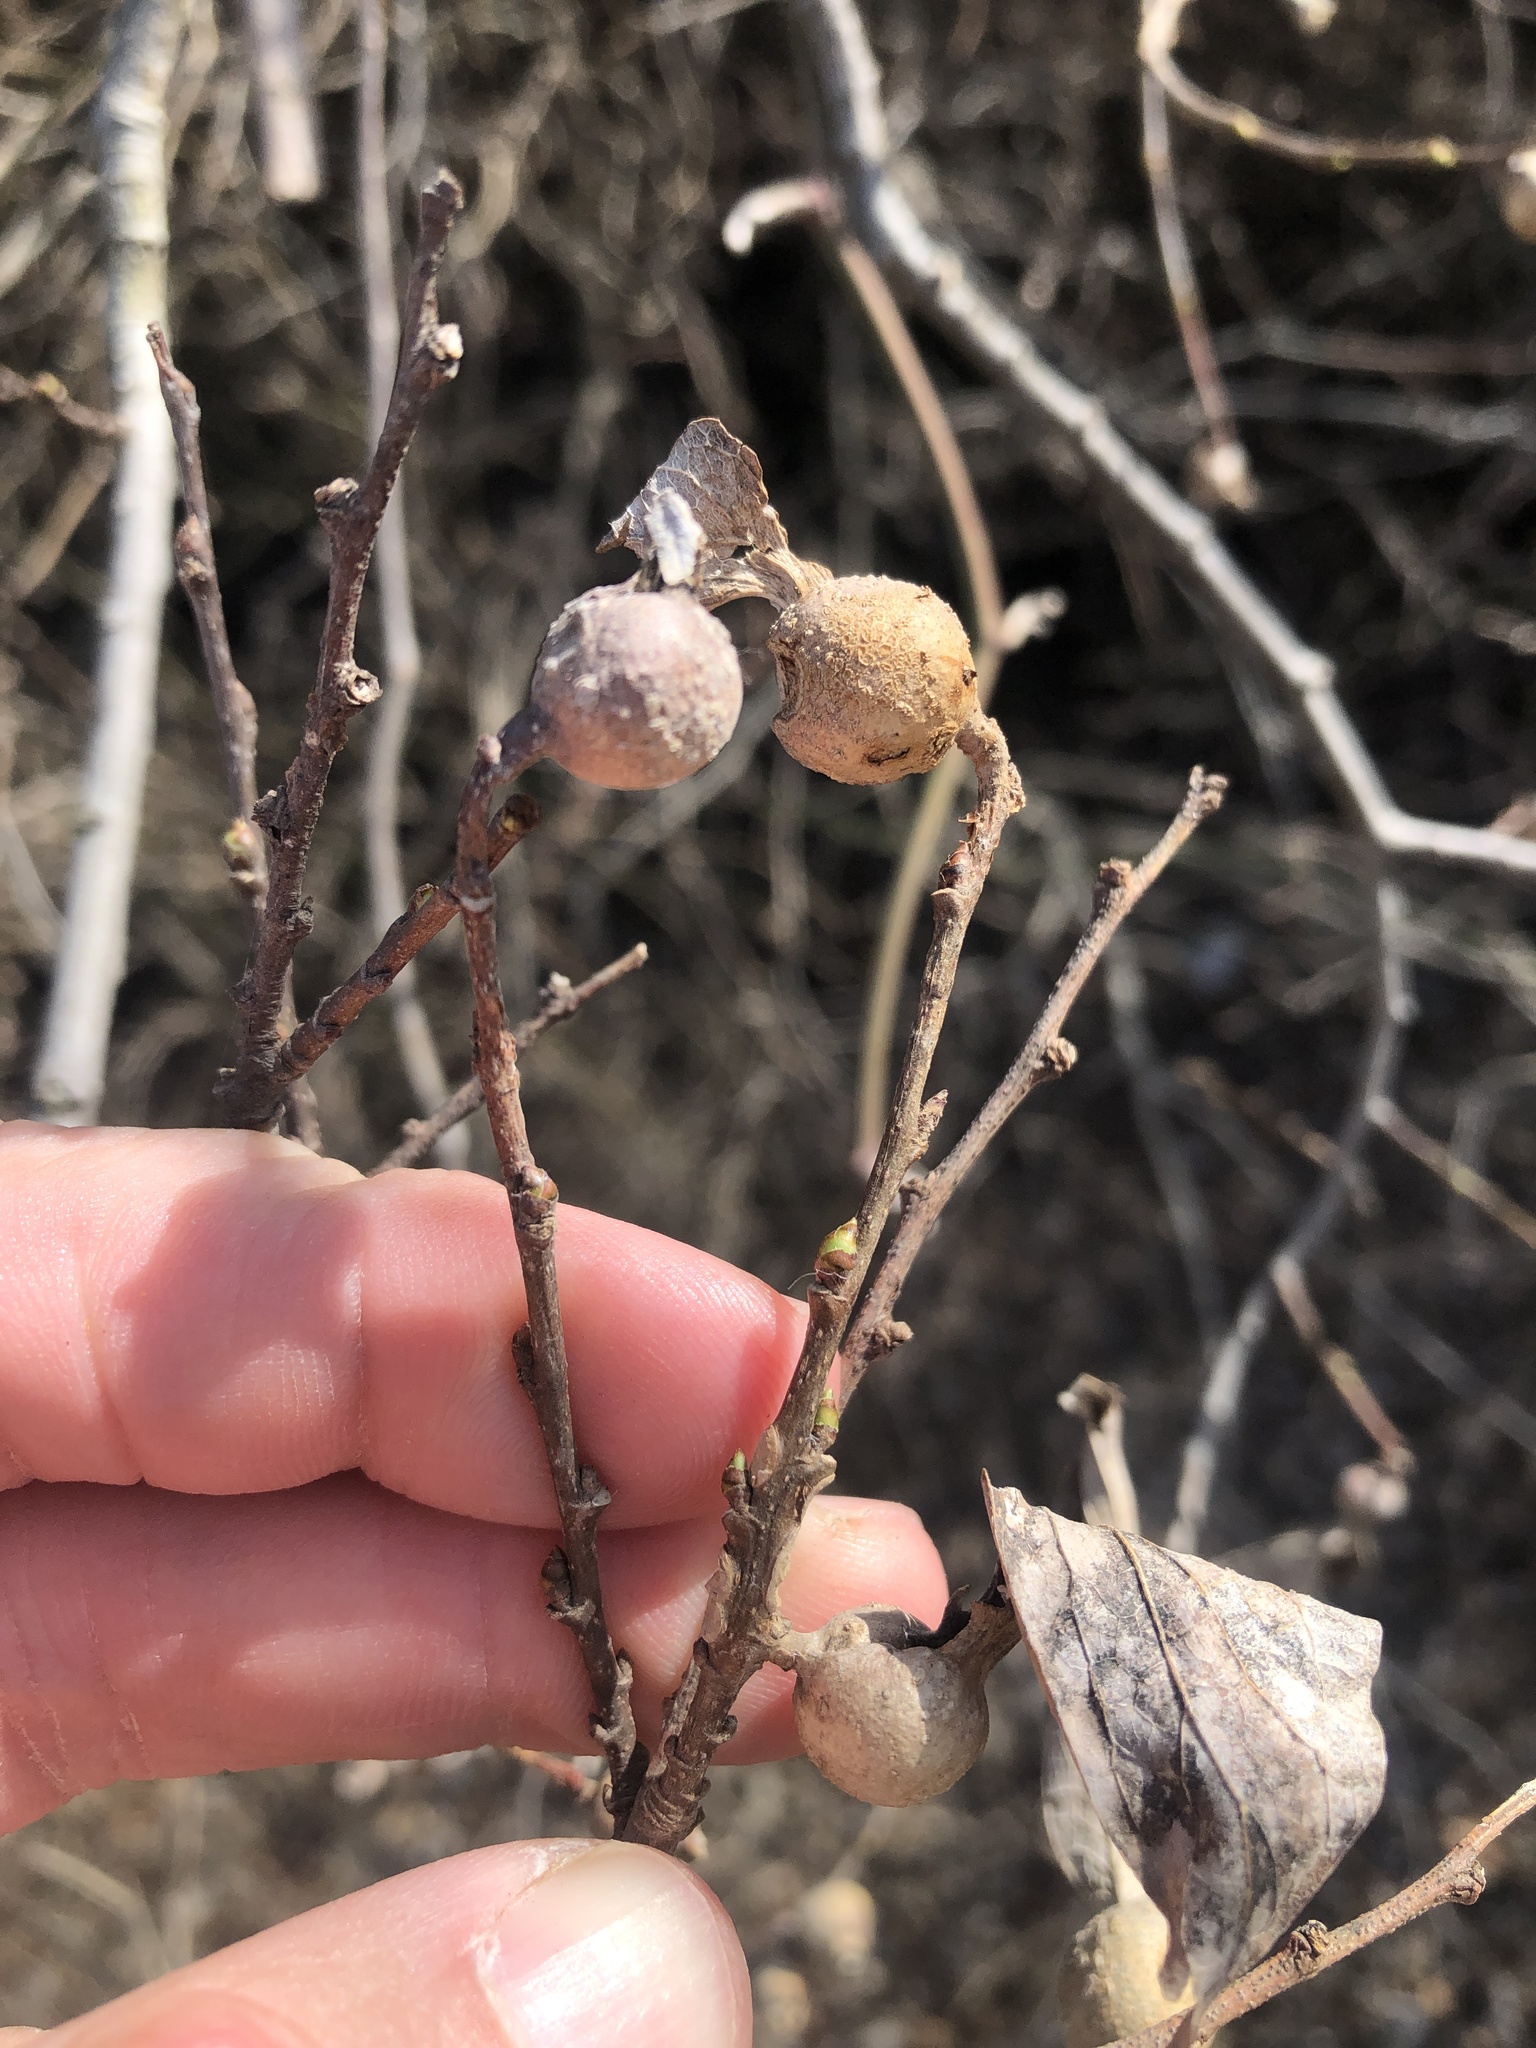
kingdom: Animalia
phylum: Arthropoda
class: Insecta
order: Hemiptera
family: Aphalaridae
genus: Pachypsylla
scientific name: Pachypsylla venusta
